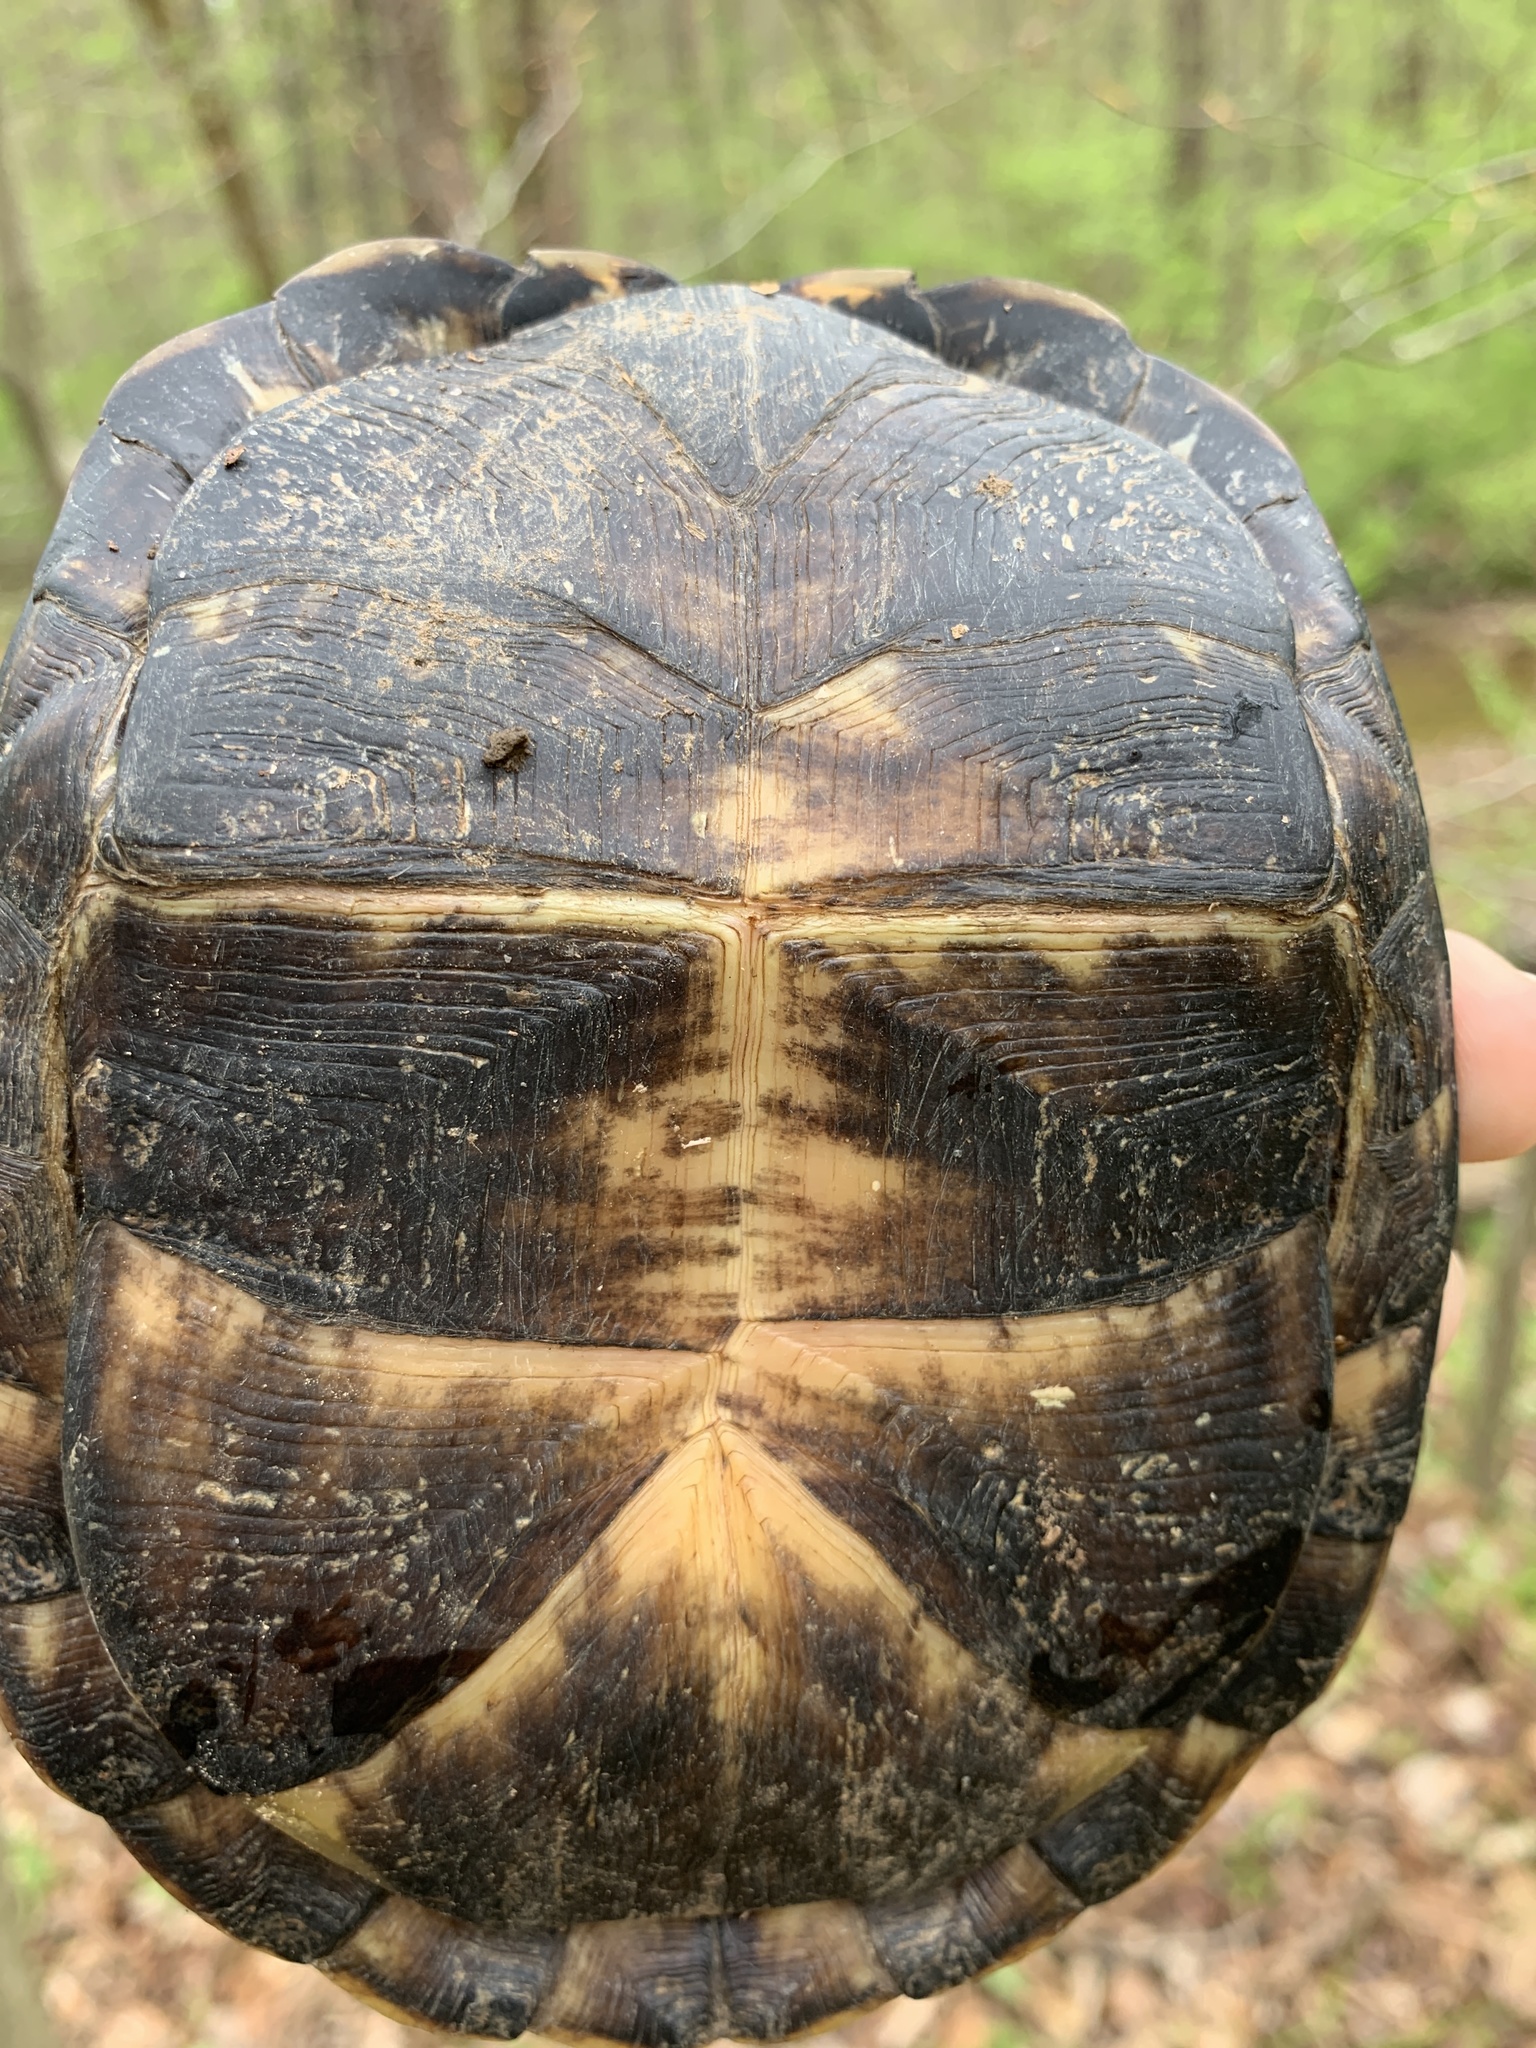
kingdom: Animalia
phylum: Chordata
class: Testudines
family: Emydidae
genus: Terrapene
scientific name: Terrapene carolina
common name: Common box turtle
